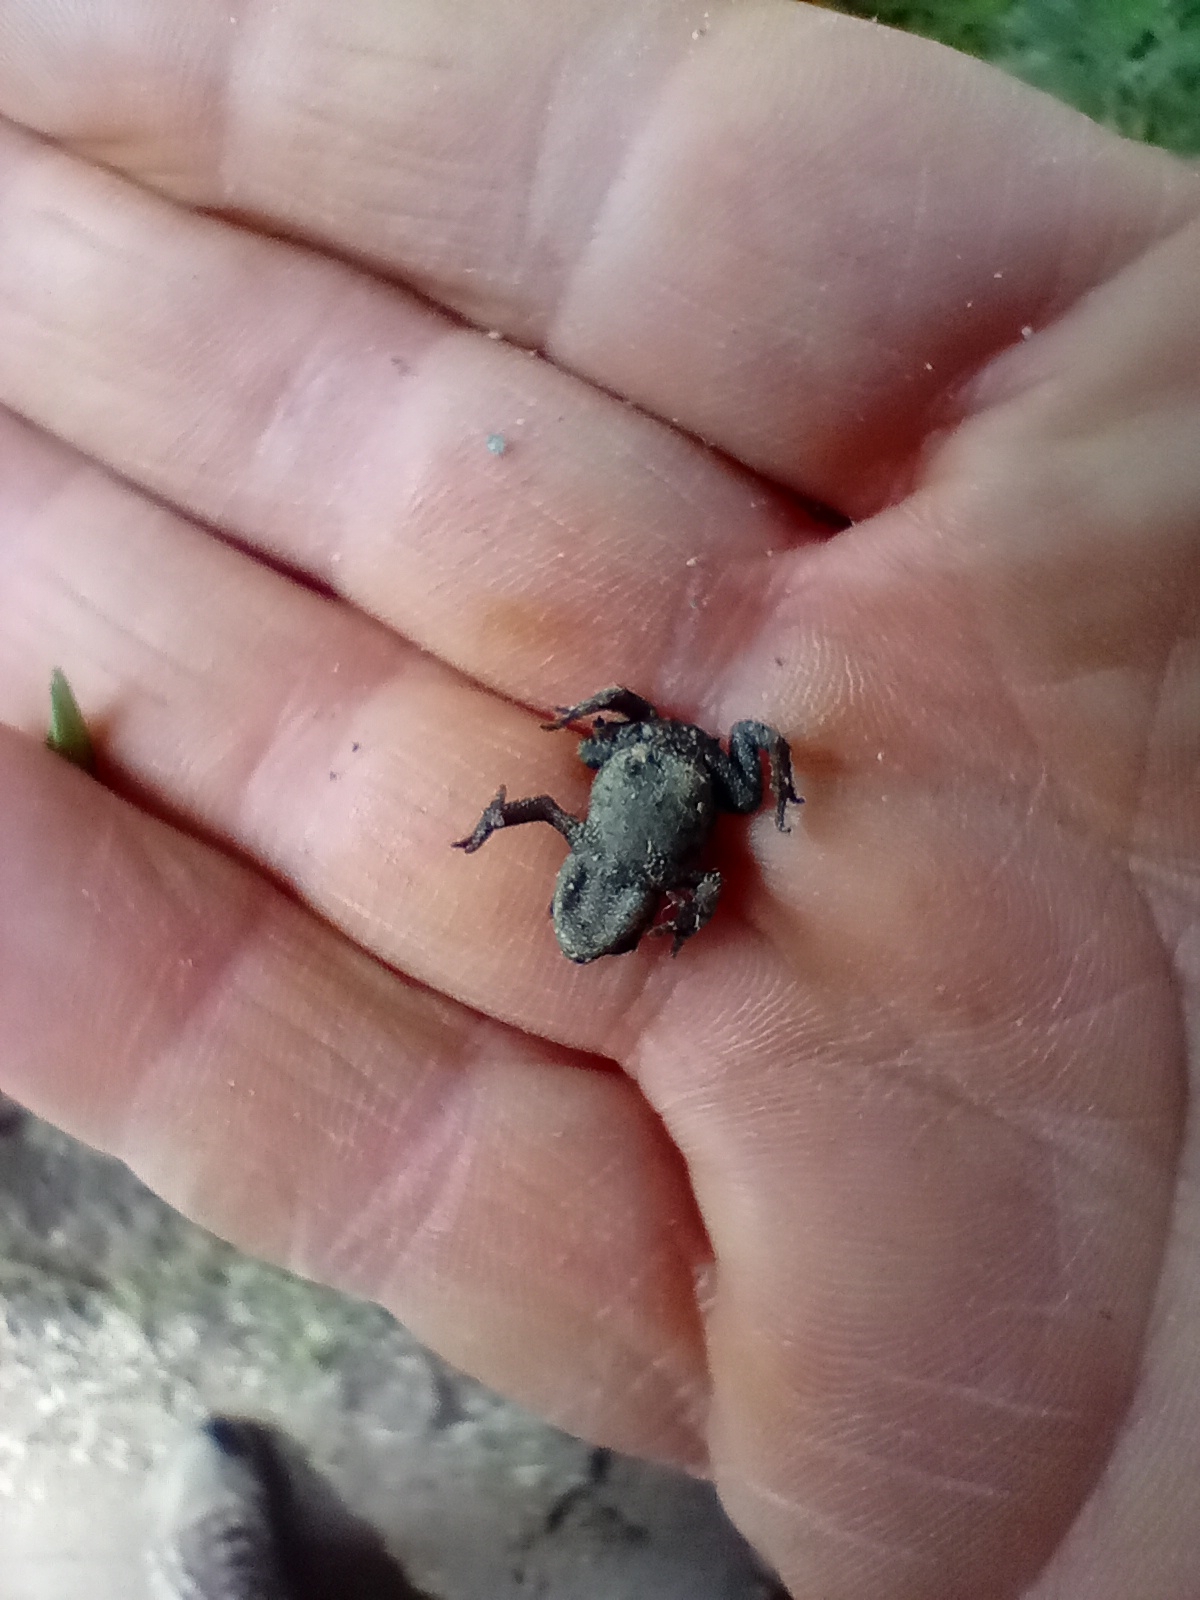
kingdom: Animalia
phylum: Chordata
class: Amphibia
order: Anura
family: Bufonidae
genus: Bufo
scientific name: Bufo bufo
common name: Common toad
